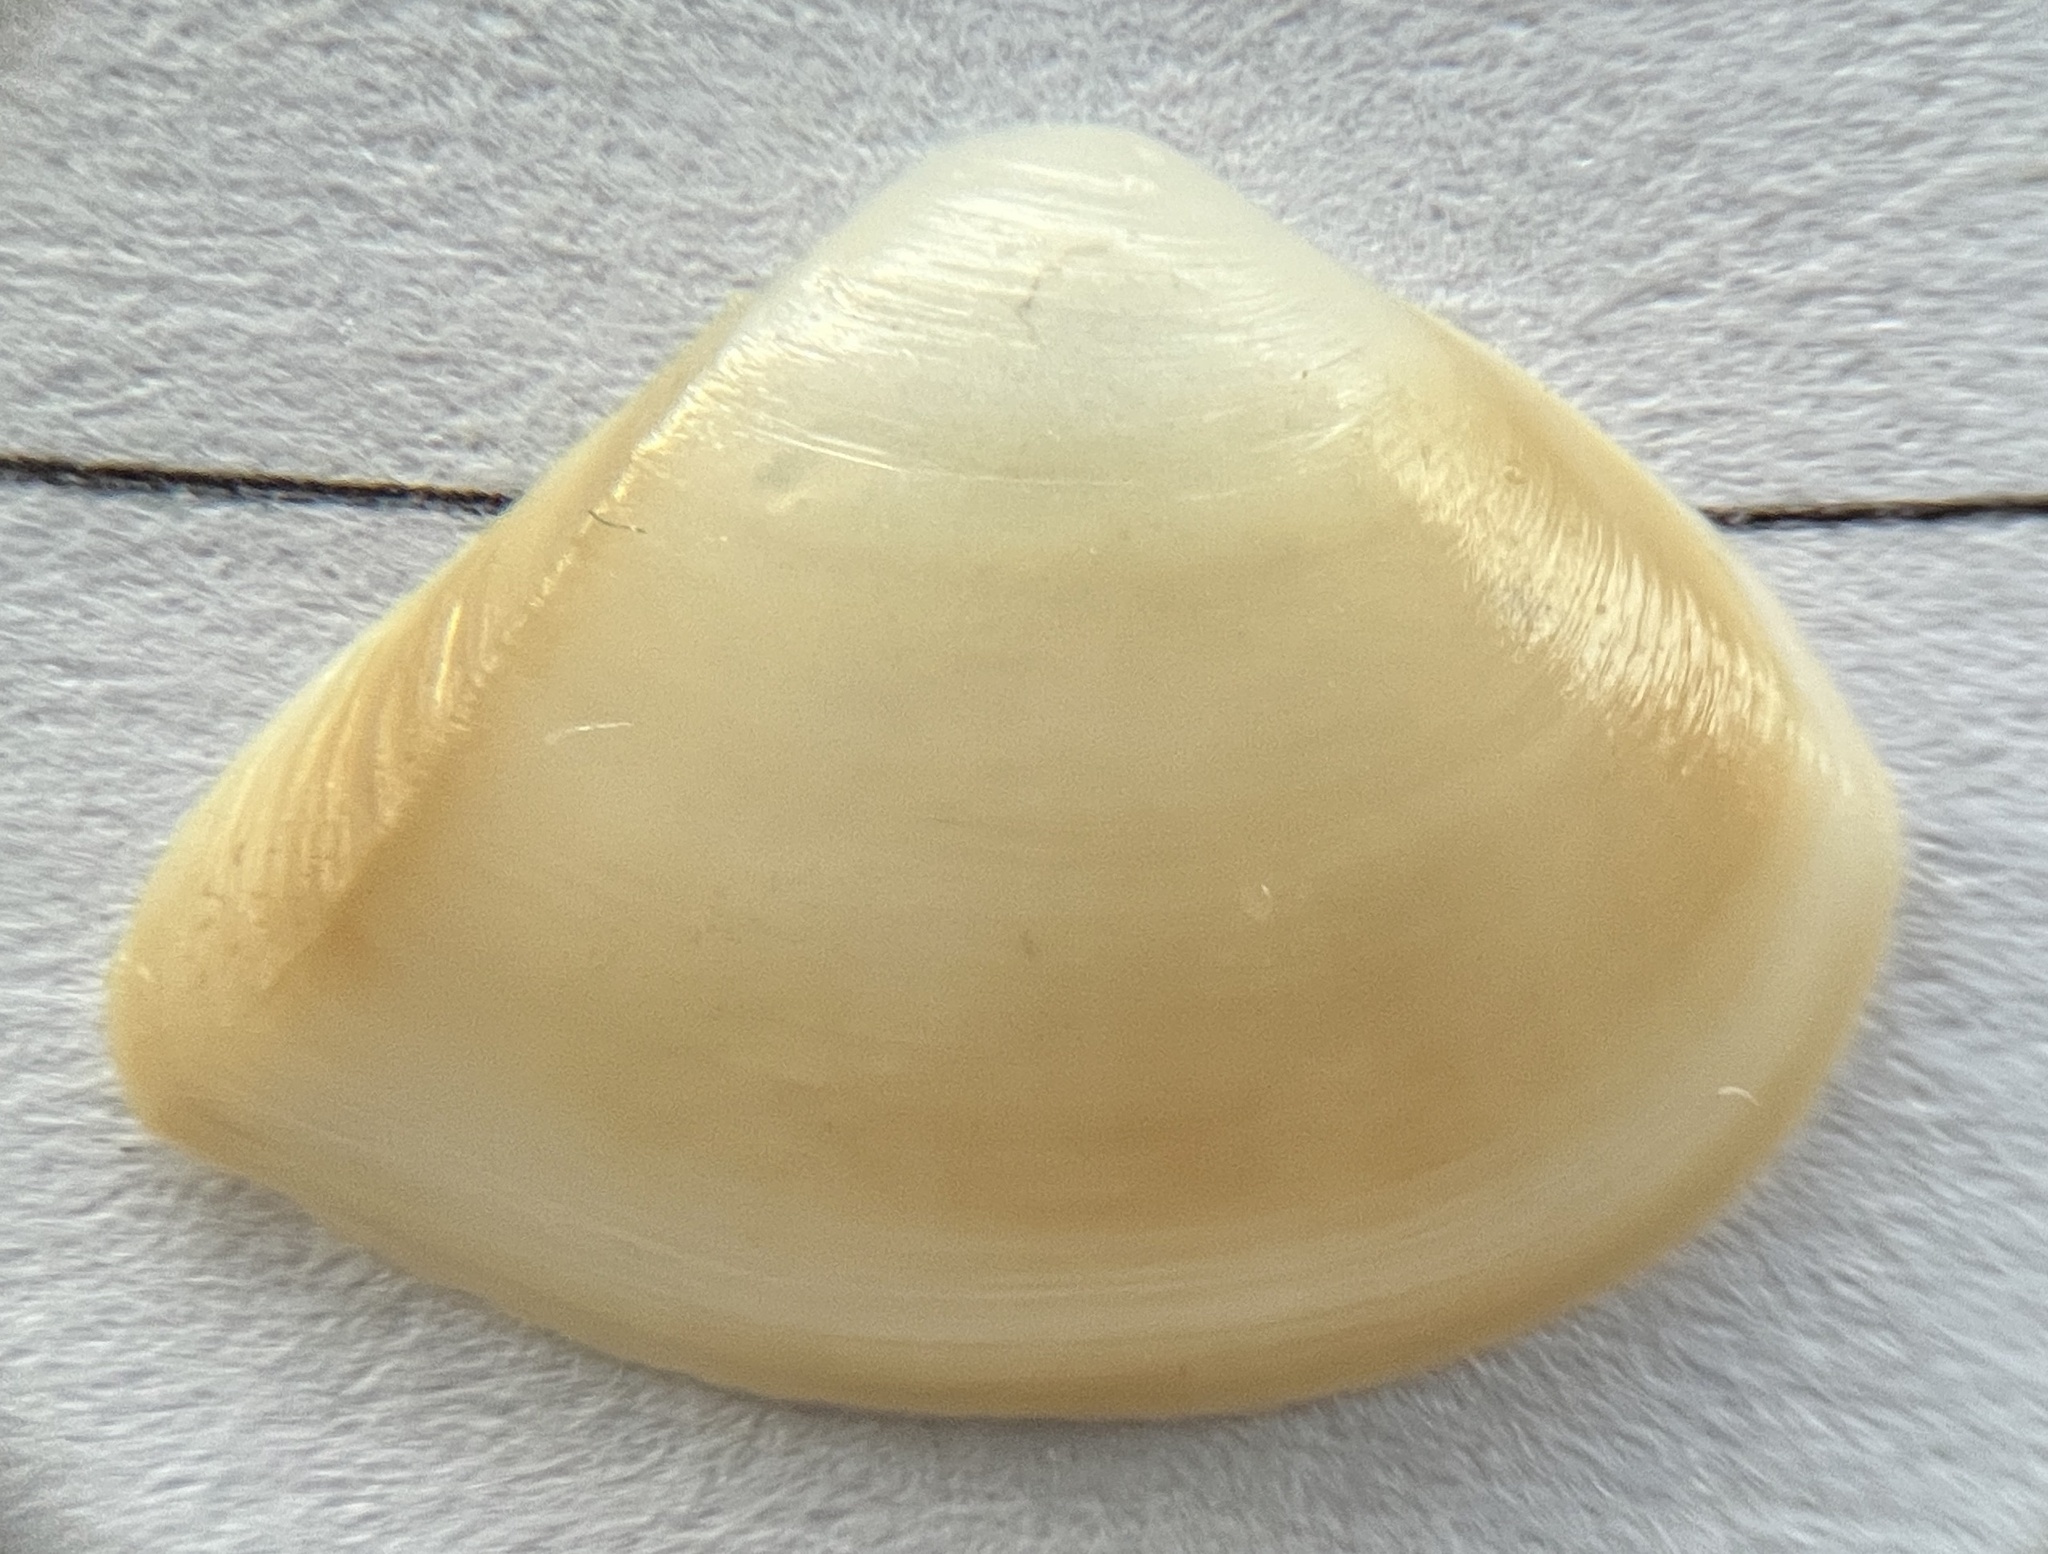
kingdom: Animalia
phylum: Mollusca
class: Bivalvia
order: Venerida
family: Mactridae
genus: Mulinia
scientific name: Mulinia lateralis
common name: Dwarf surfclam
